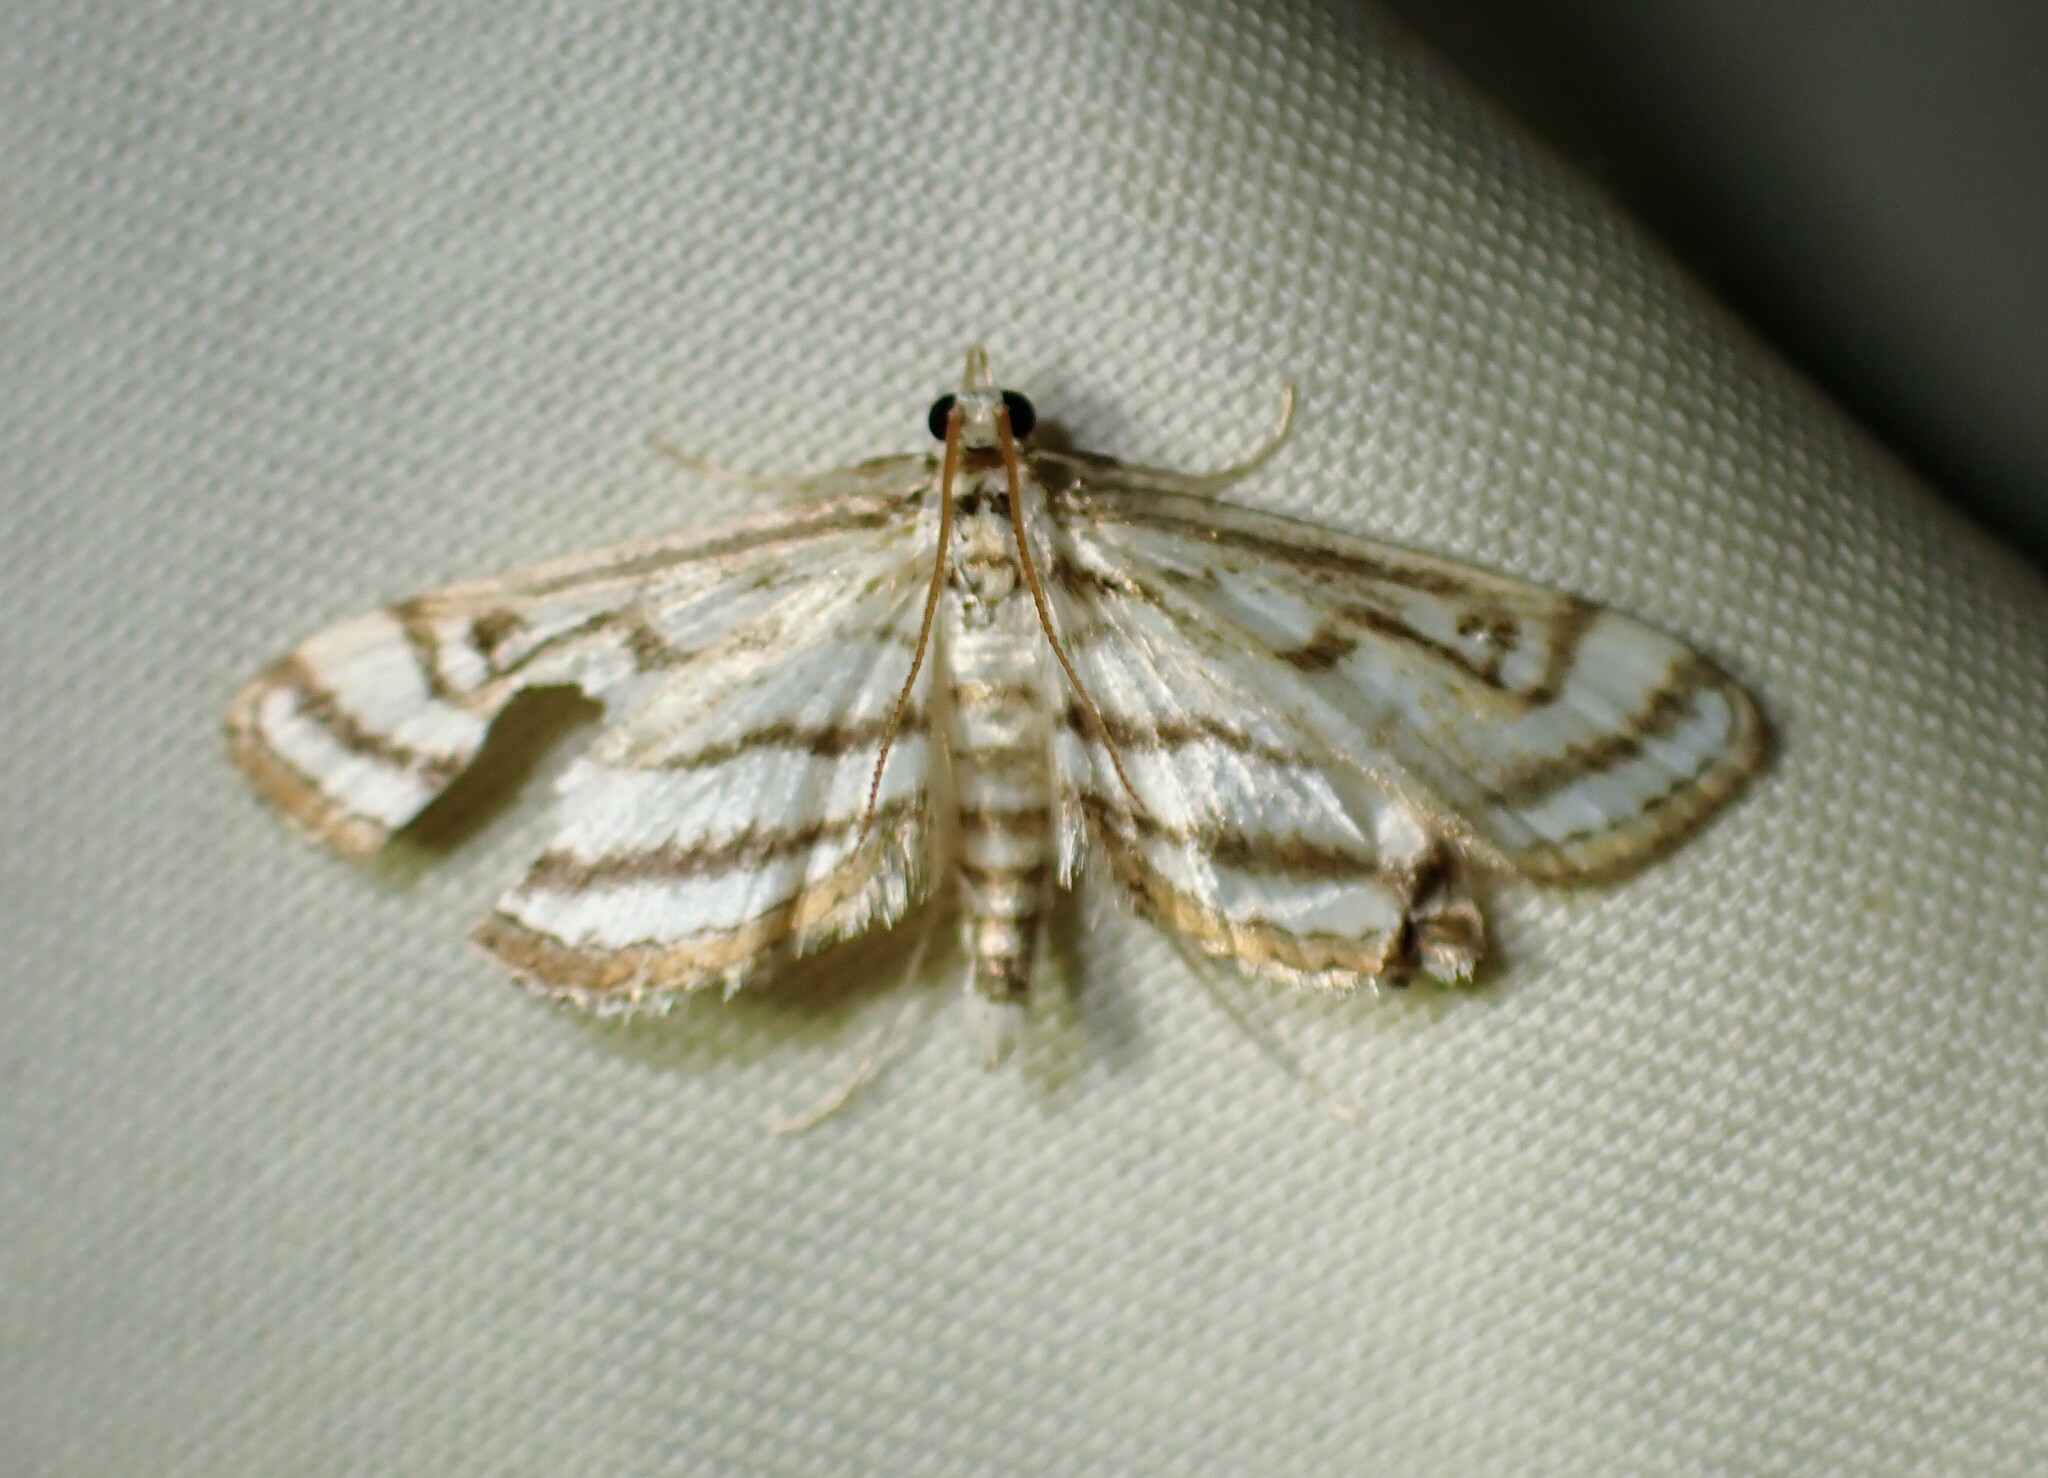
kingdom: Animalia
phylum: Arthropoda
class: Insecta
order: Lepidoptera
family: Crambidae
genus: Parapoynx
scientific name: Parapoynx badiusalis
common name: Chestnut-marked pondweed moth
